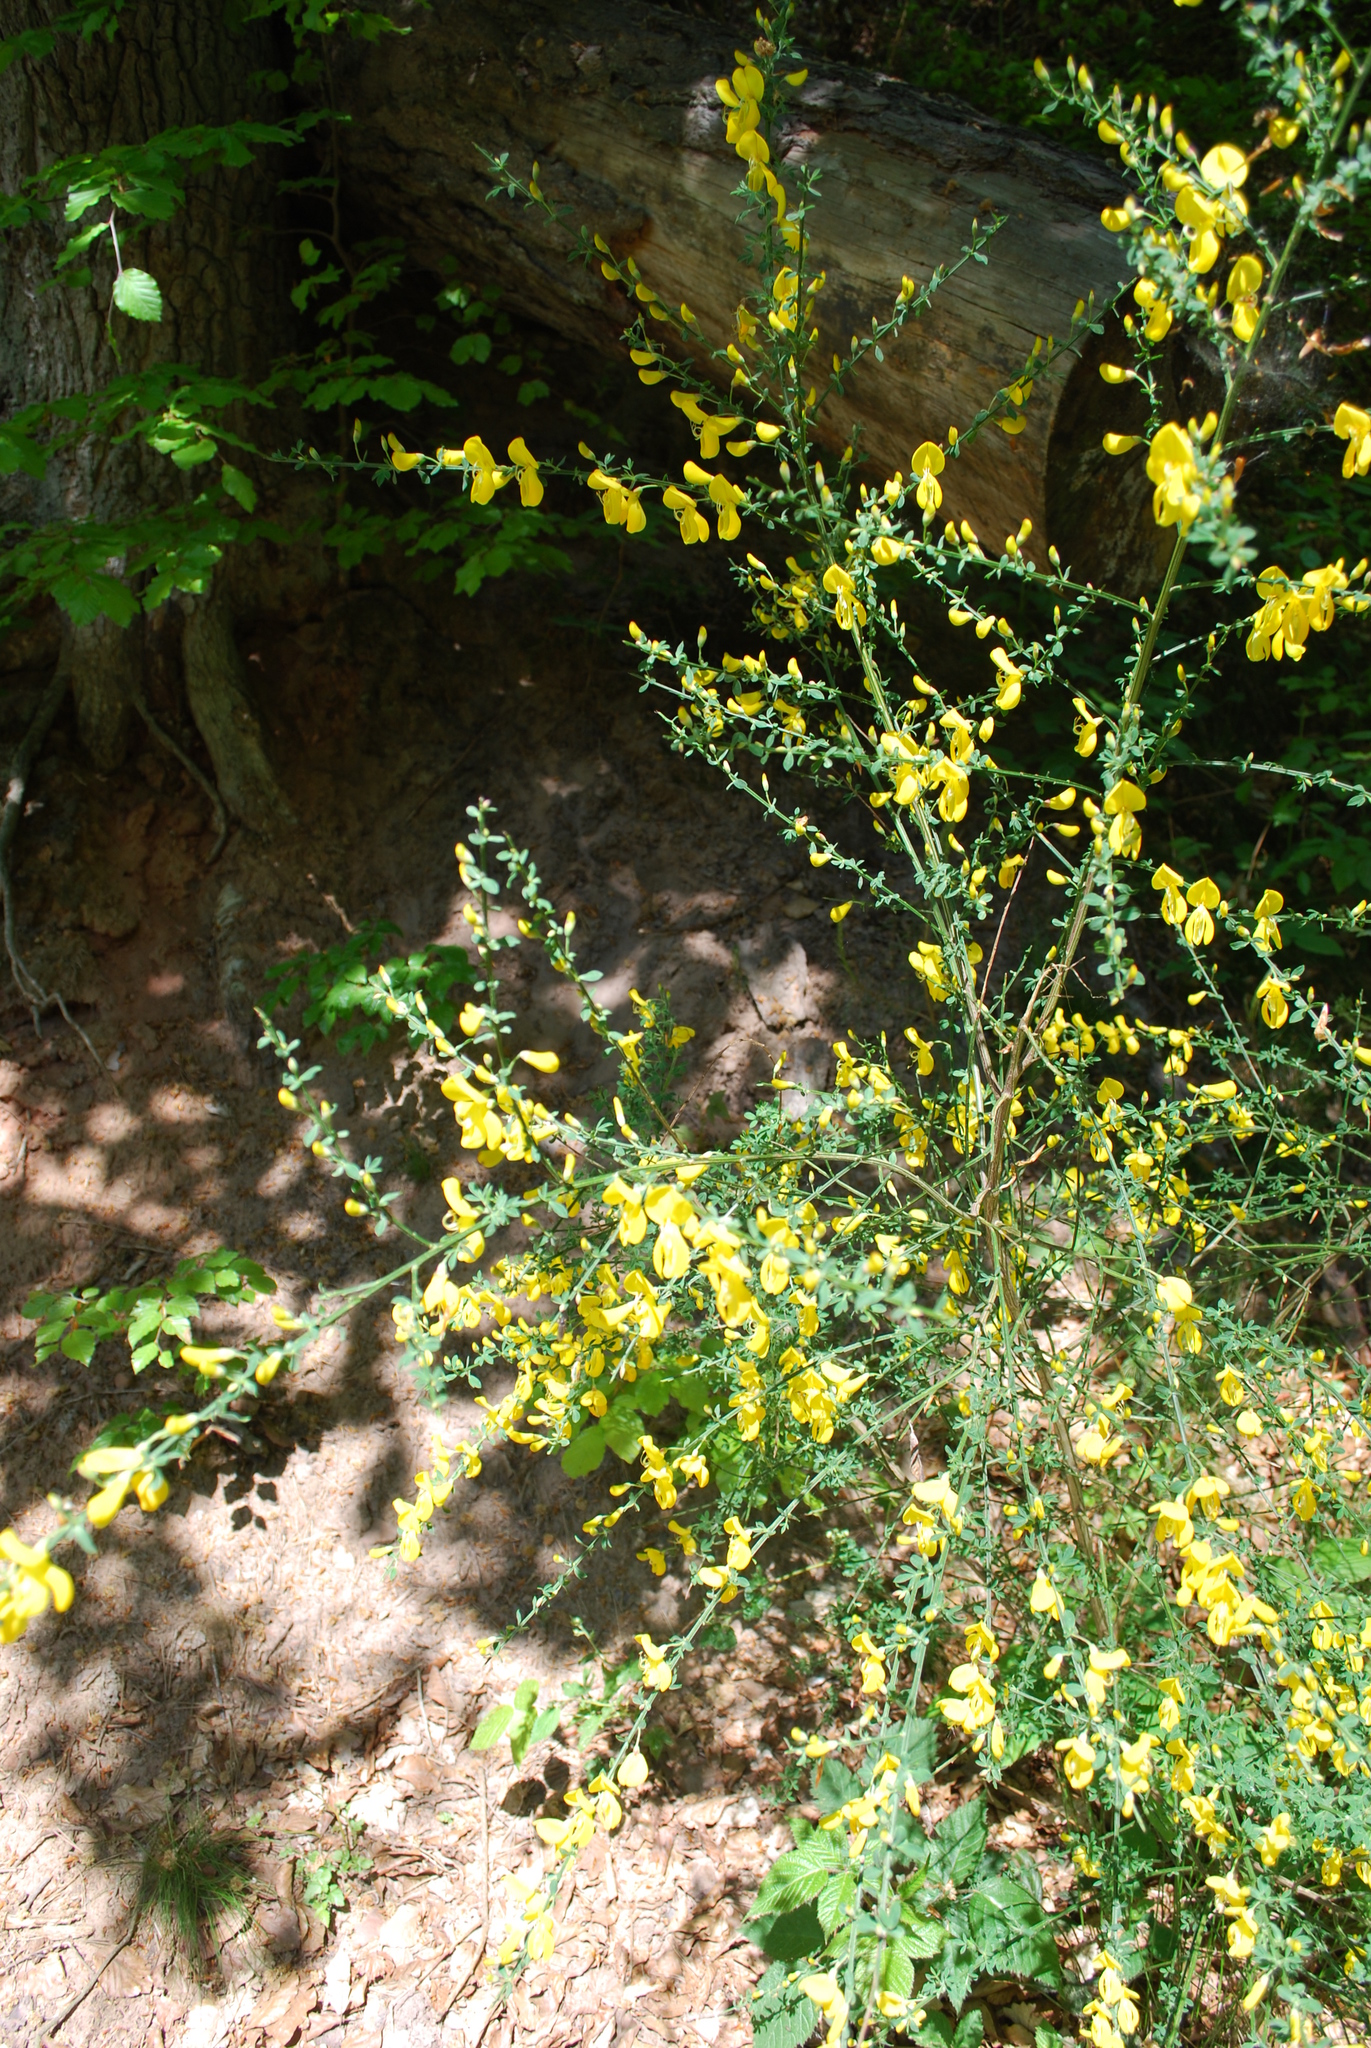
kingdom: Plantae
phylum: Tracheophyta
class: Magnoliopsida
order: Fabales
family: Fabaceae
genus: Cytisus
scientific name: Cytisus scoparius
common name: Scotch broom
